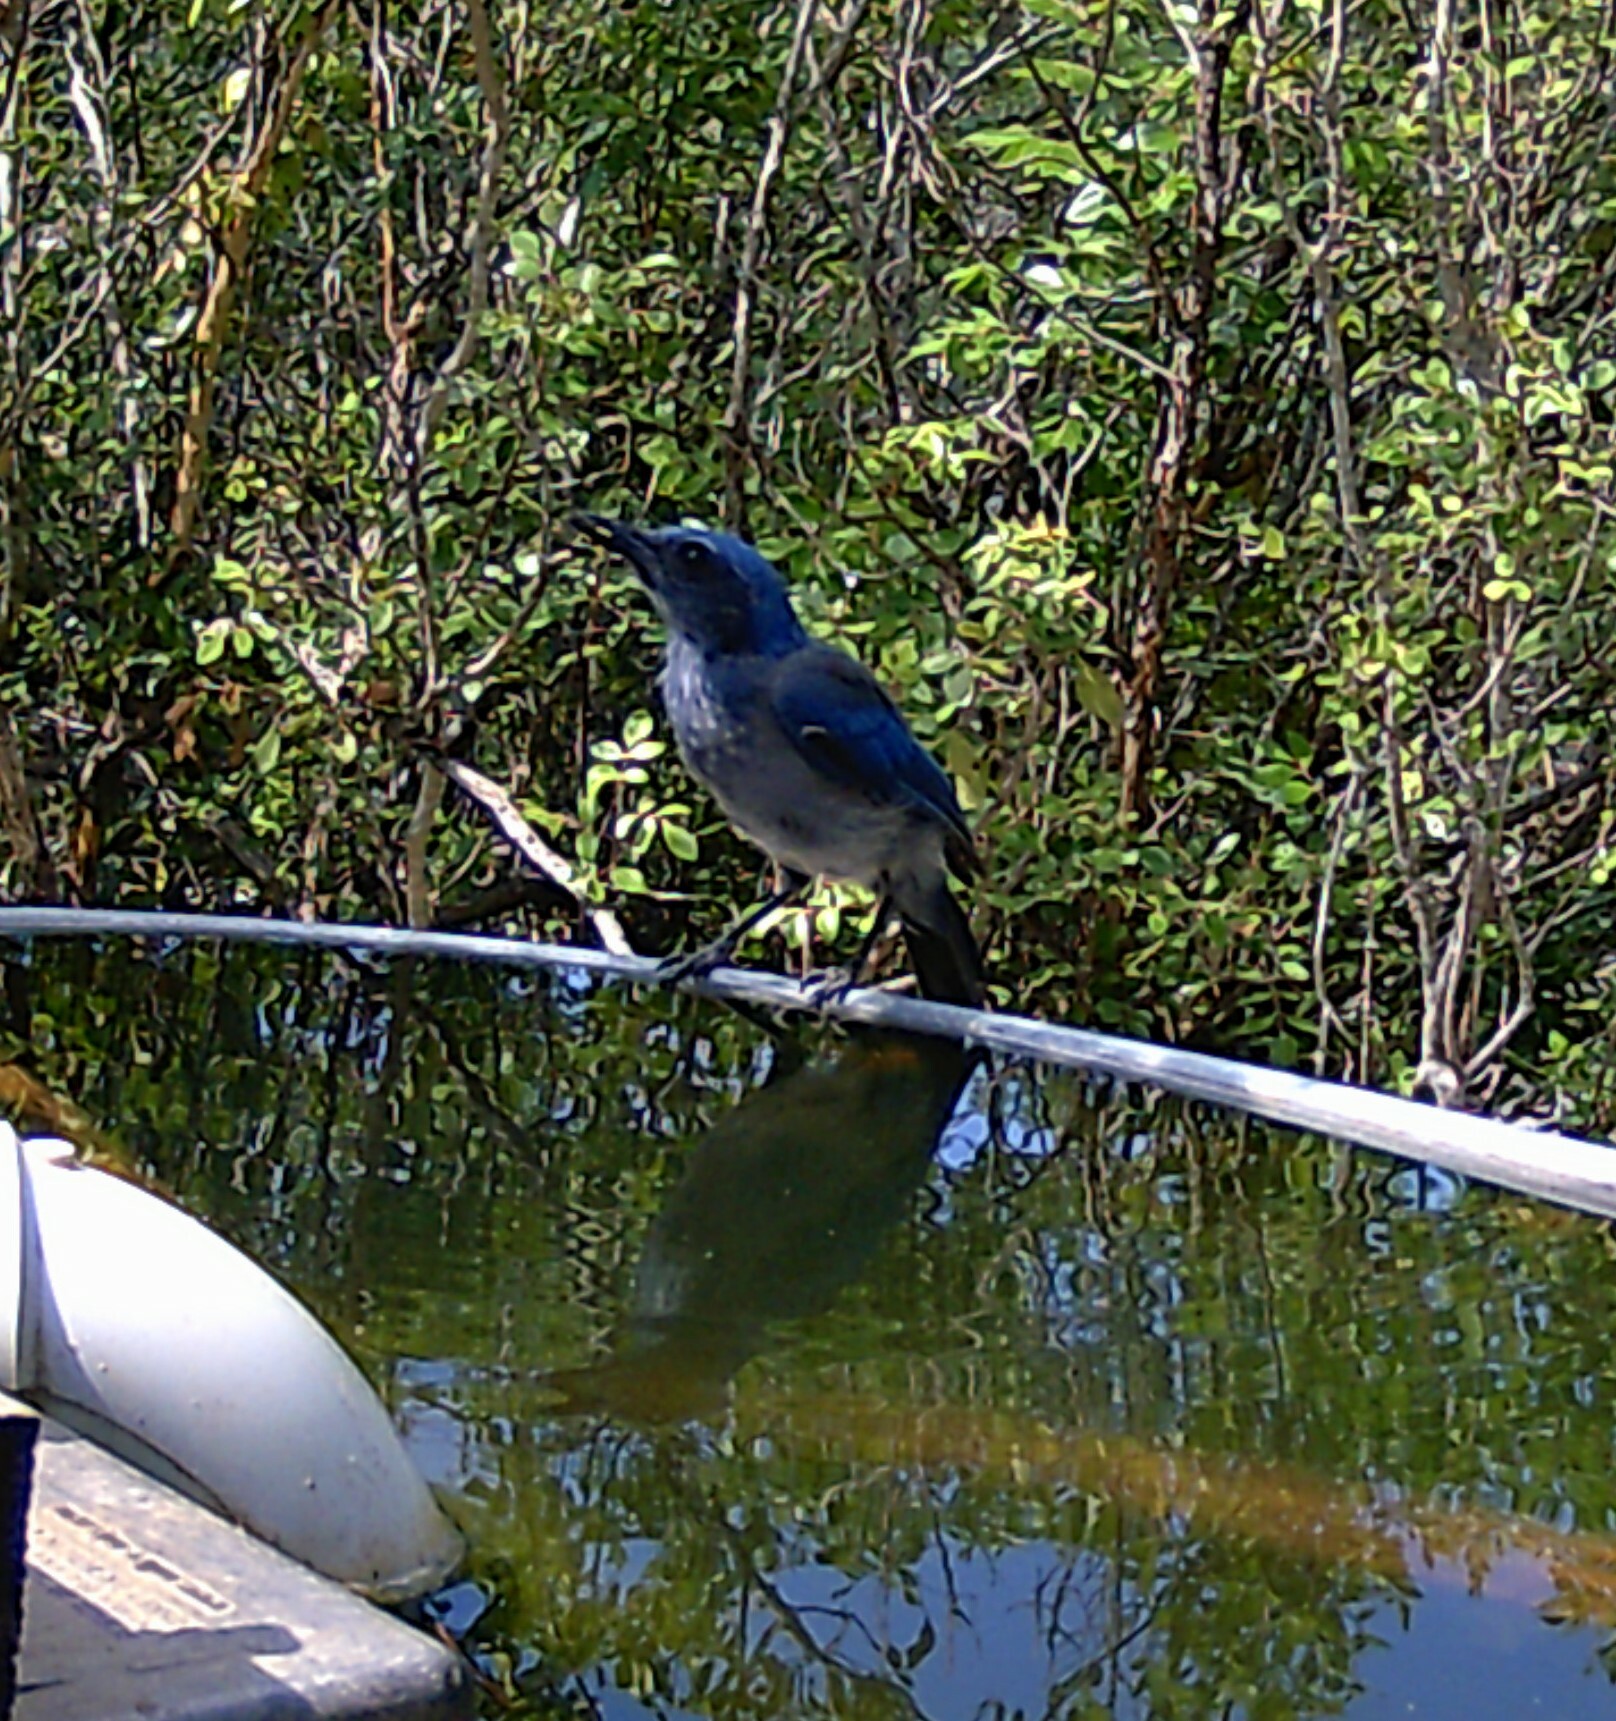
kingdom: Animalia
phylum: Chordata
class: Aves
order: Passeriformes
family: Corvidae
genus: Aphelocoma
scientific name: Aphelocoma woodhouseii
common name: Woodhouse's scrub-jay
